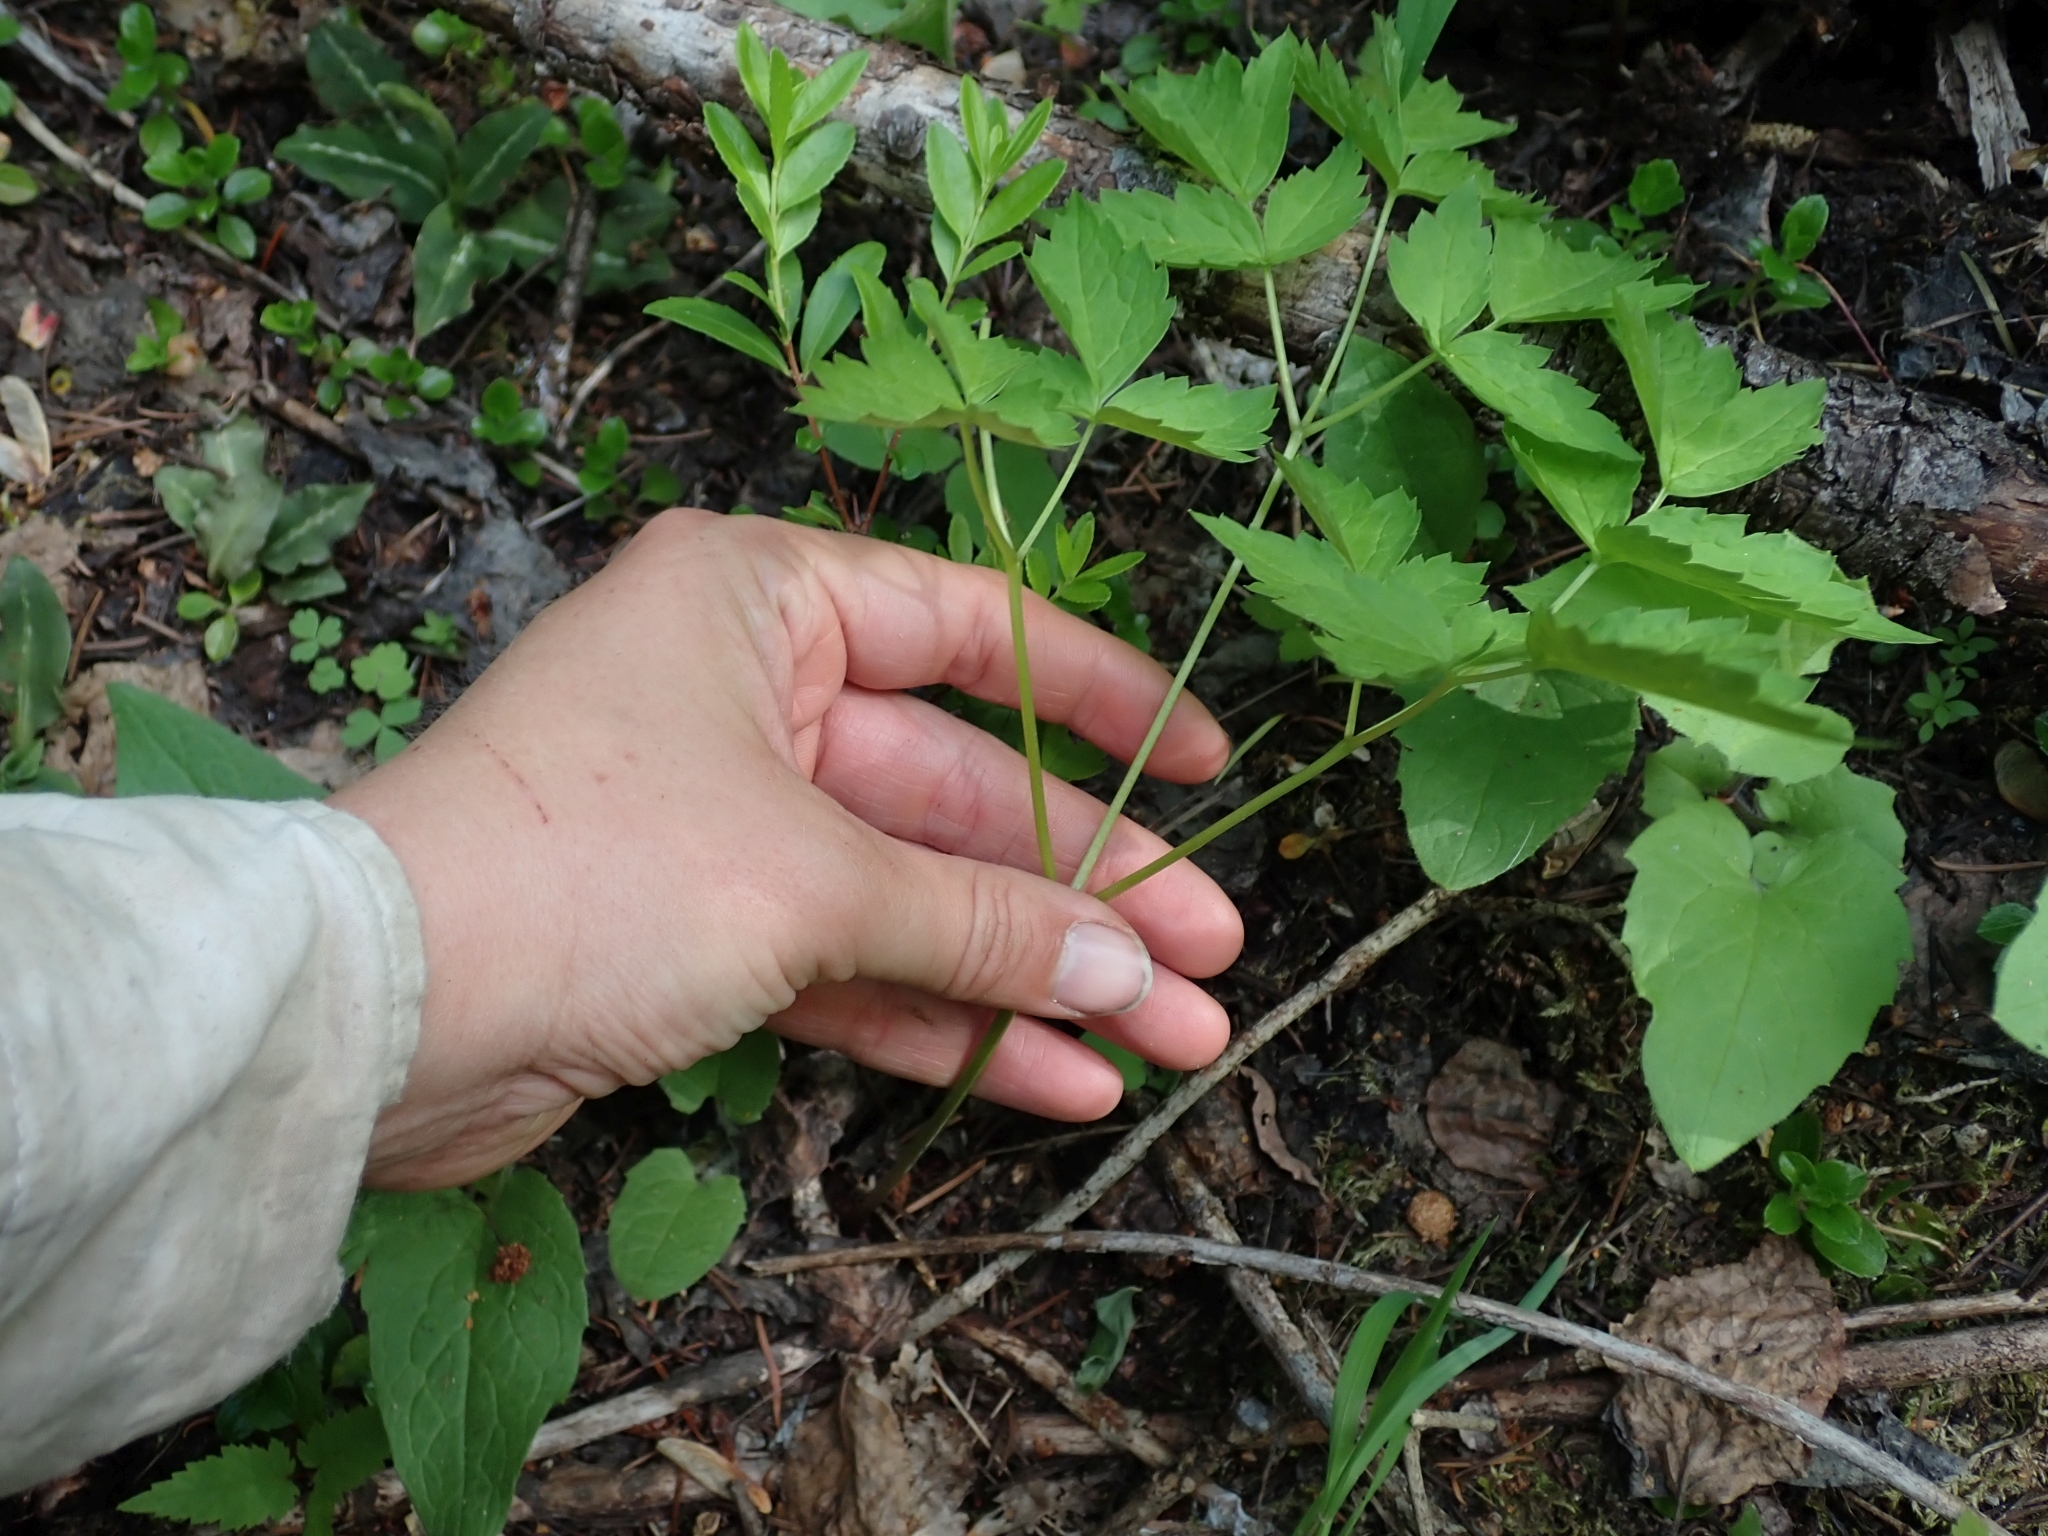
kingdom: Plantae
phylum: Tracheophyta
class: Magnoliopsida
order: Ranunculales
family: Ranunculaceae
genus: Actaea
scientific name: Actaea rubra
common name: Red baneberry
